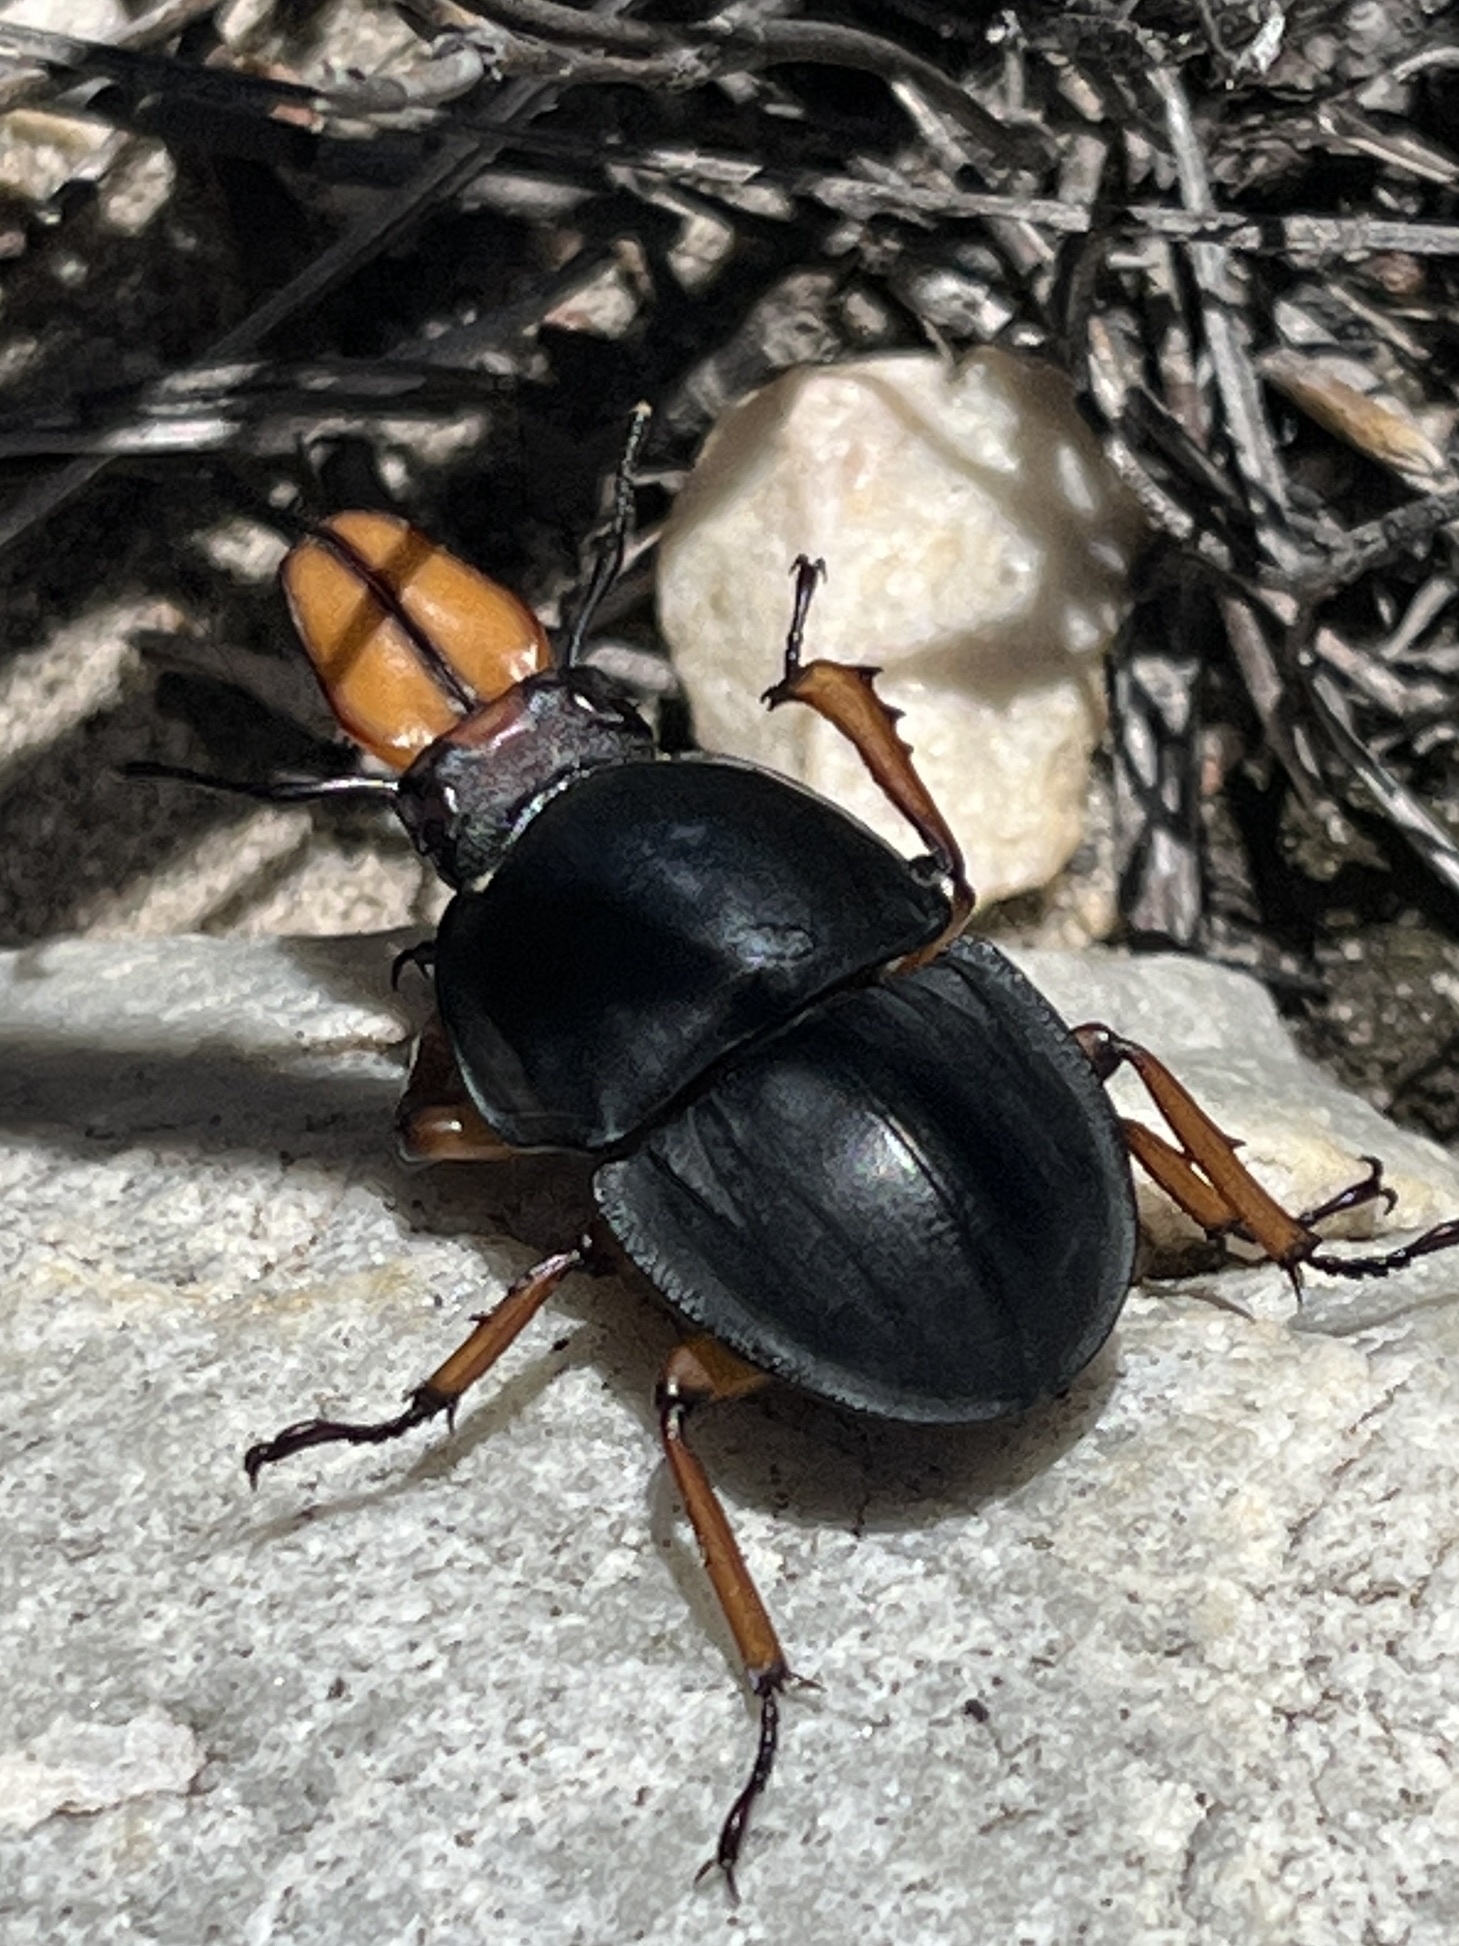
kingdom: Animalia
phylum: Arthropoda
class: Insecta
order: Coleoptera
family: Lucanidae
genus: Colophon
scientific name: Colophon primosi
